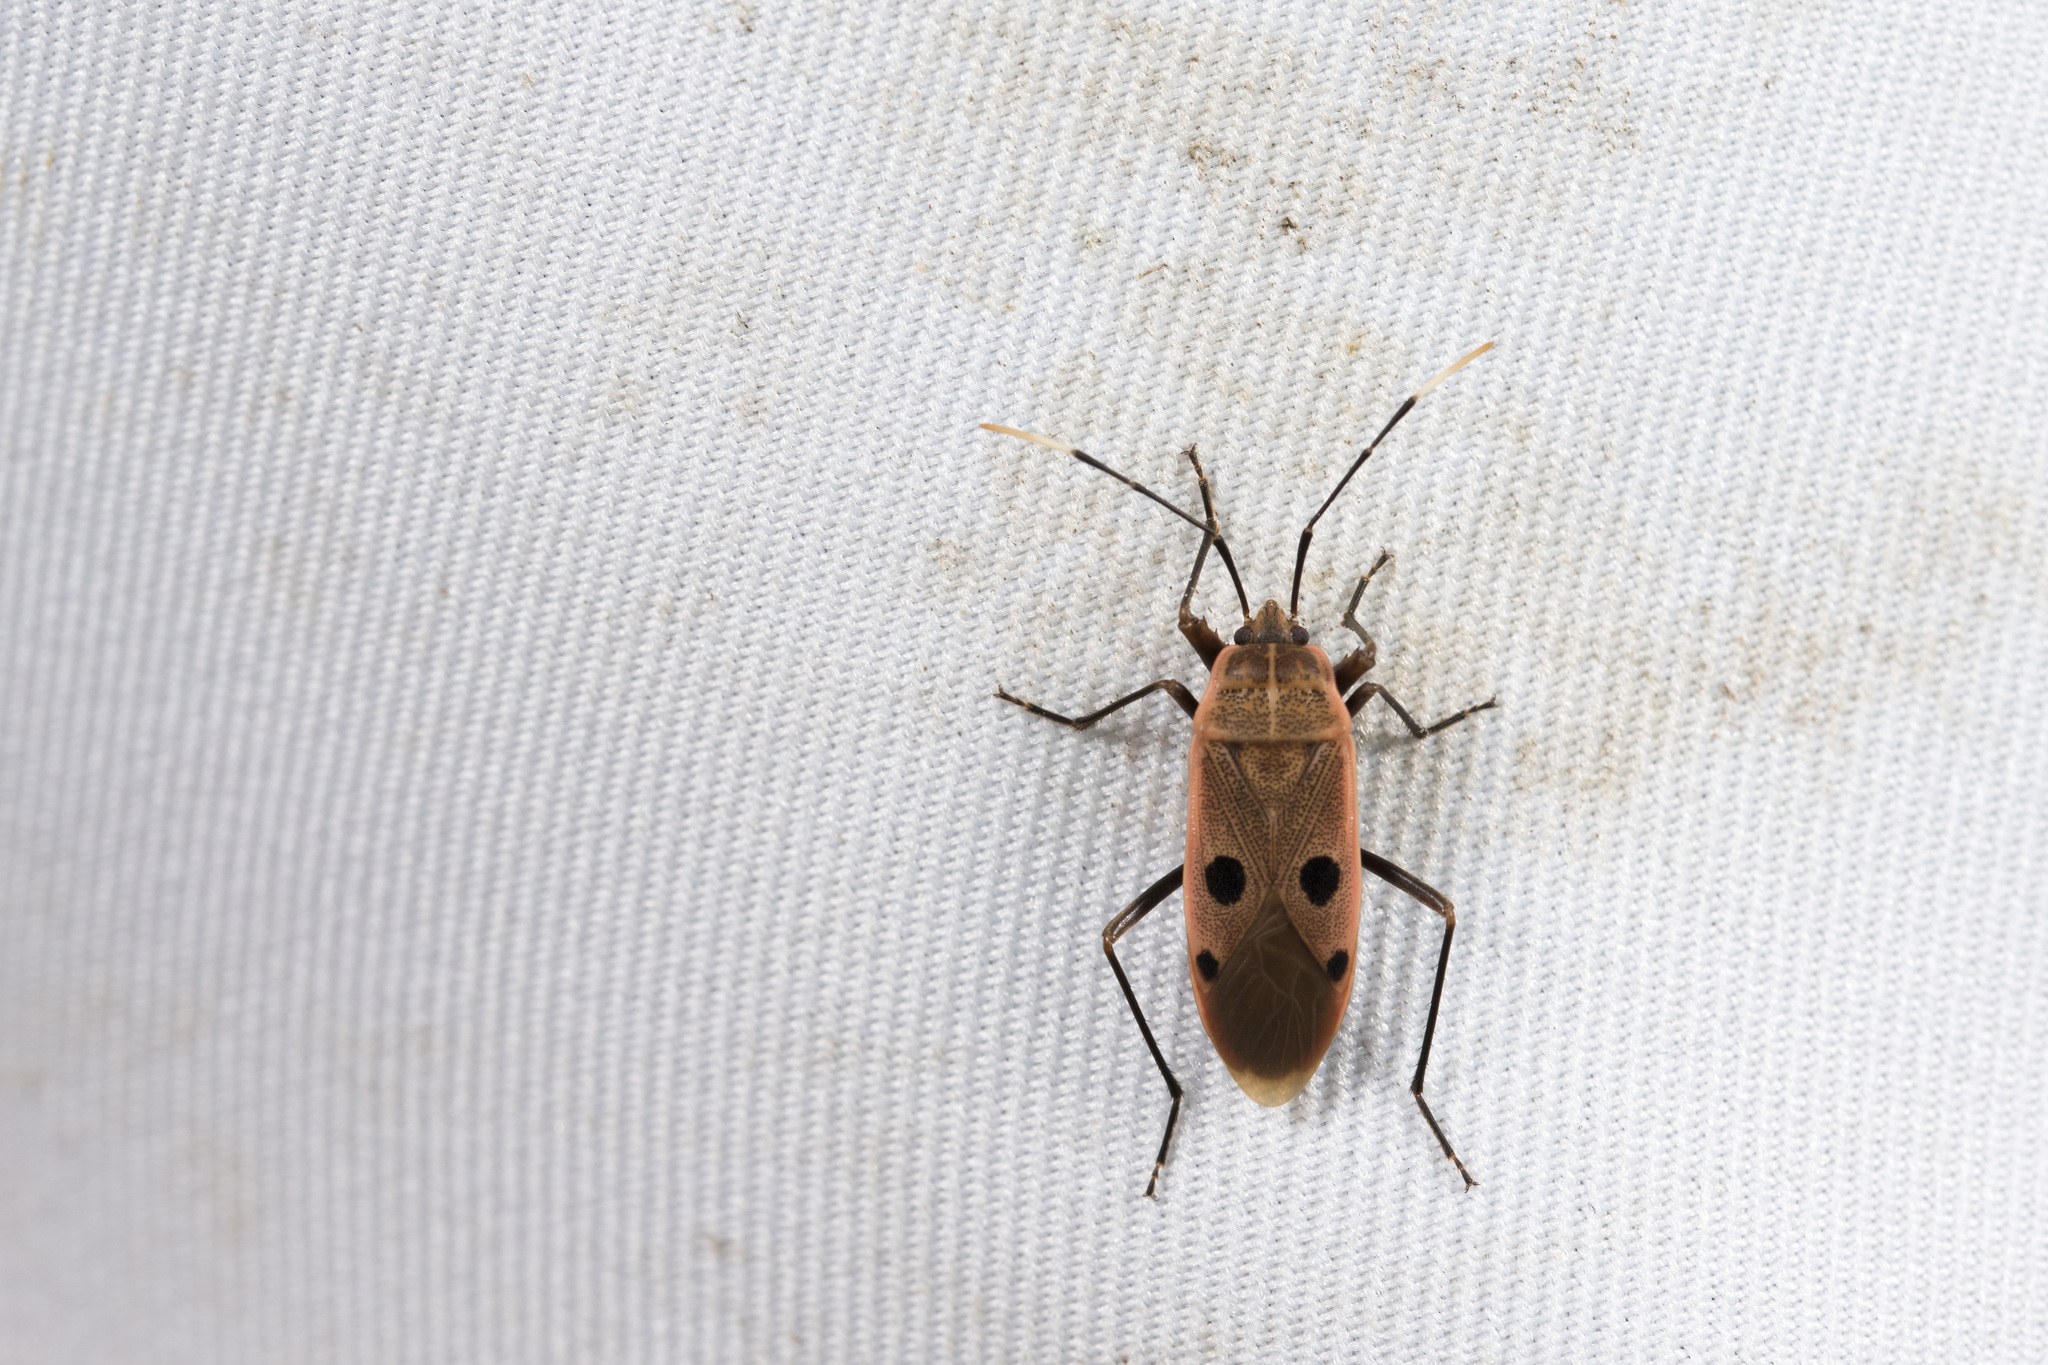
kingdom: Animalia
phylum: Arthropoda
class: Insecta
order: Hemiptera
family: Largidae
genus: Physopelta
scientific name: Physopelta quadriguttata
